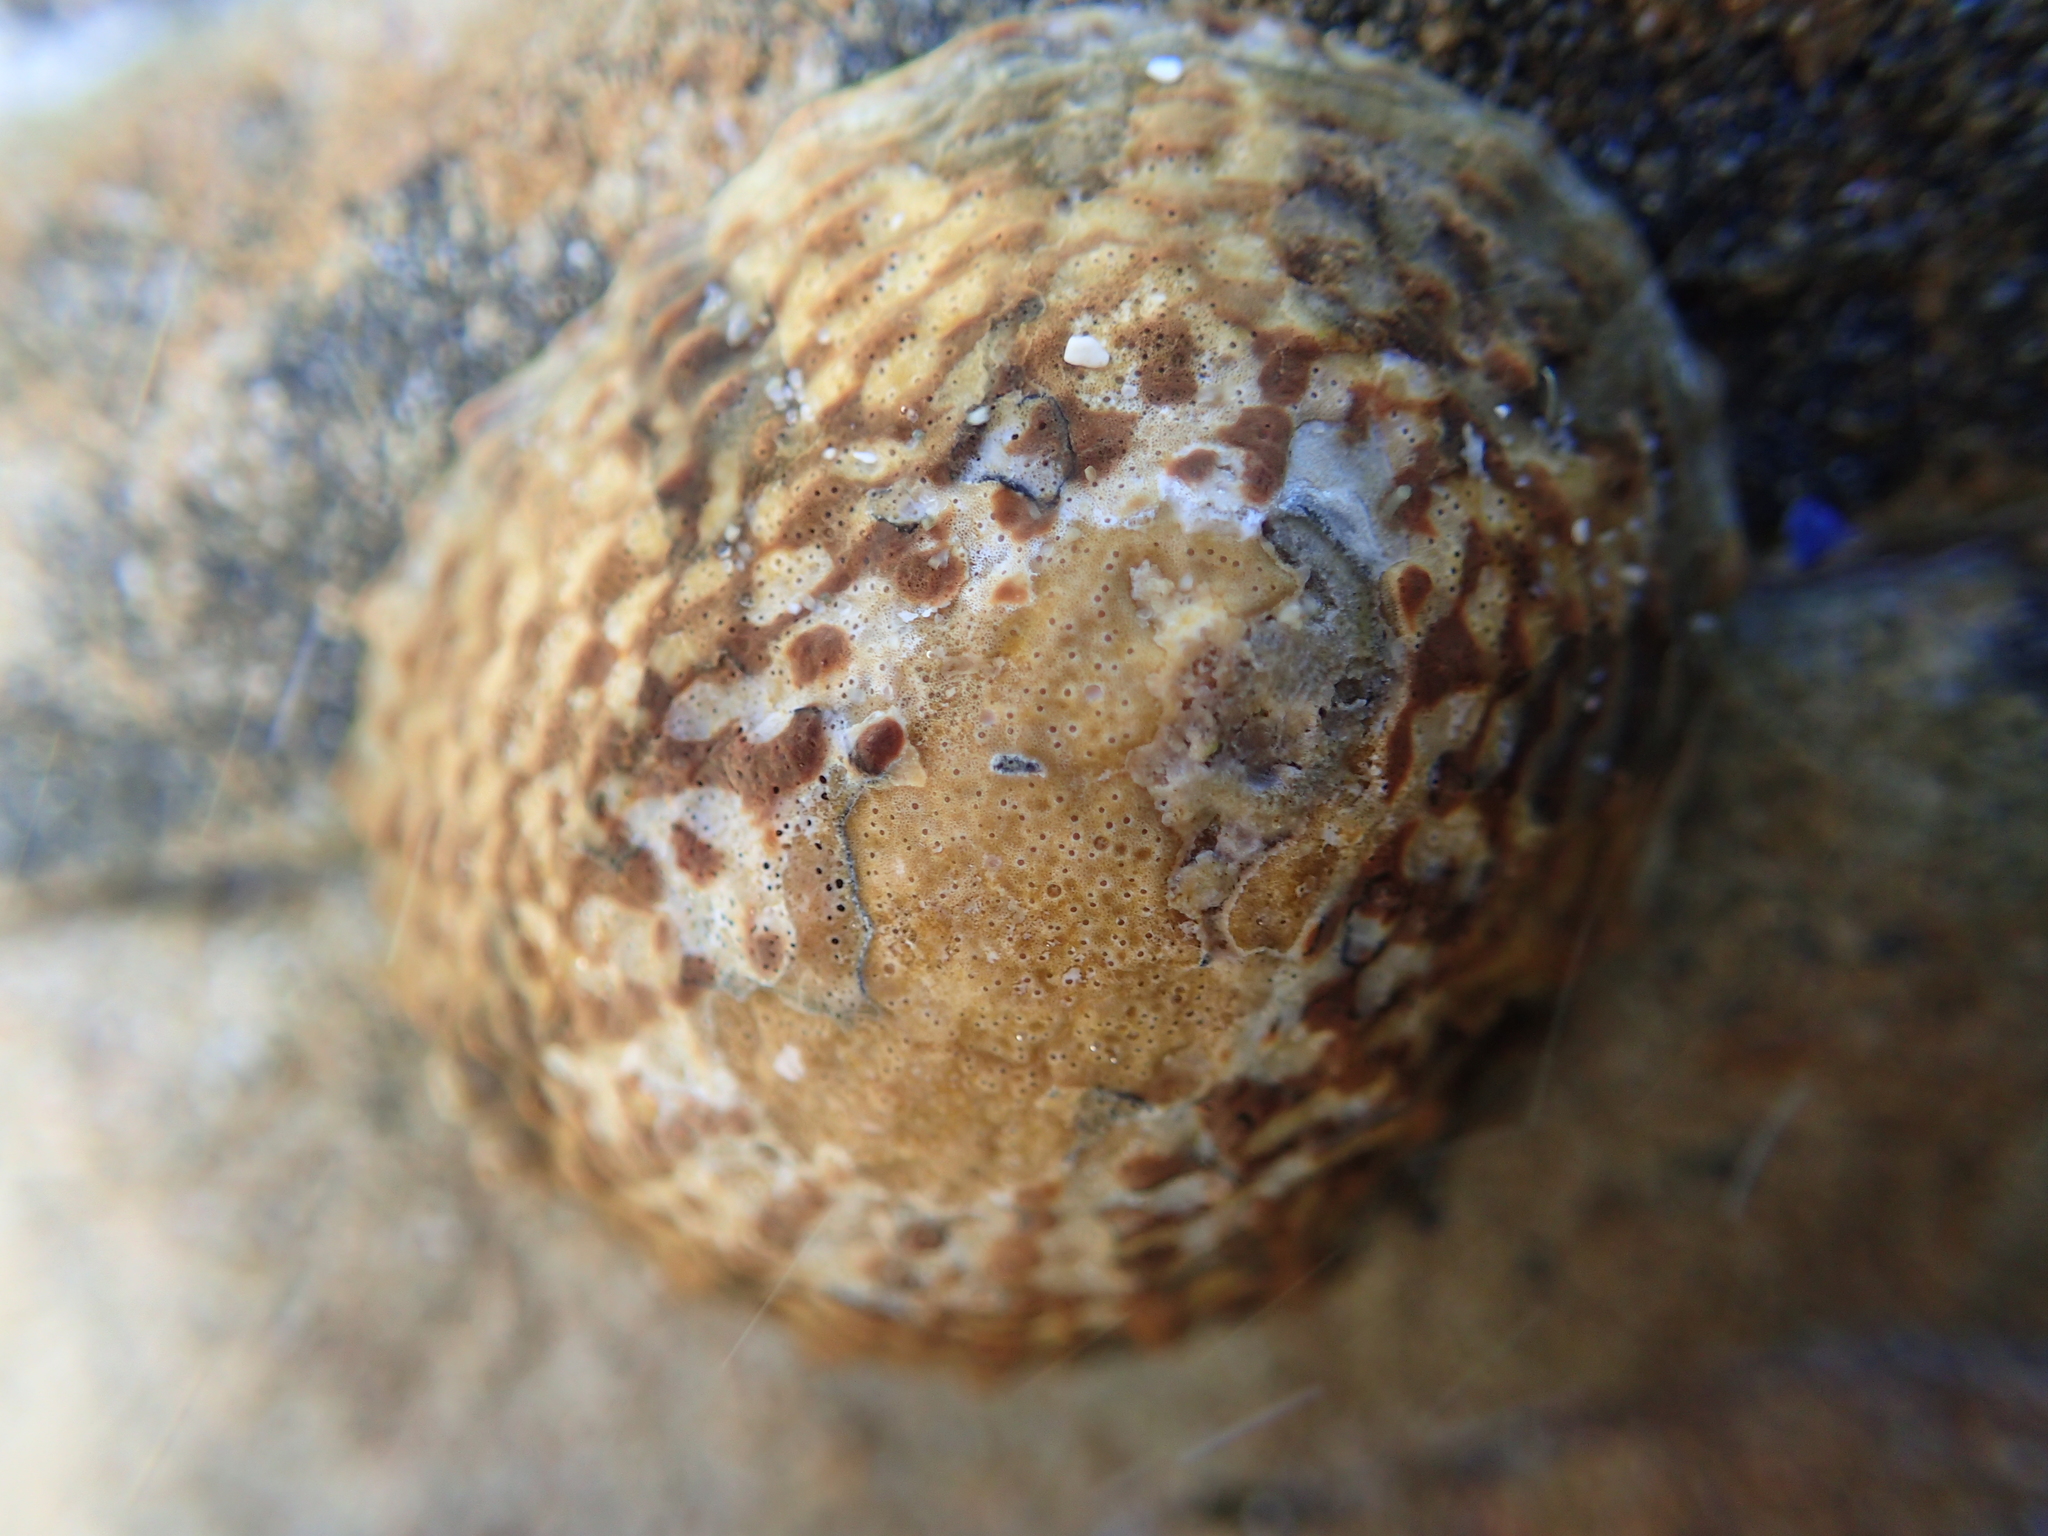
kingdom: Animalia
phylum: Mollusca
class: Gastropoda
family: Nacellidae
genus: Cellana
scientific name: Cellana denticulata
